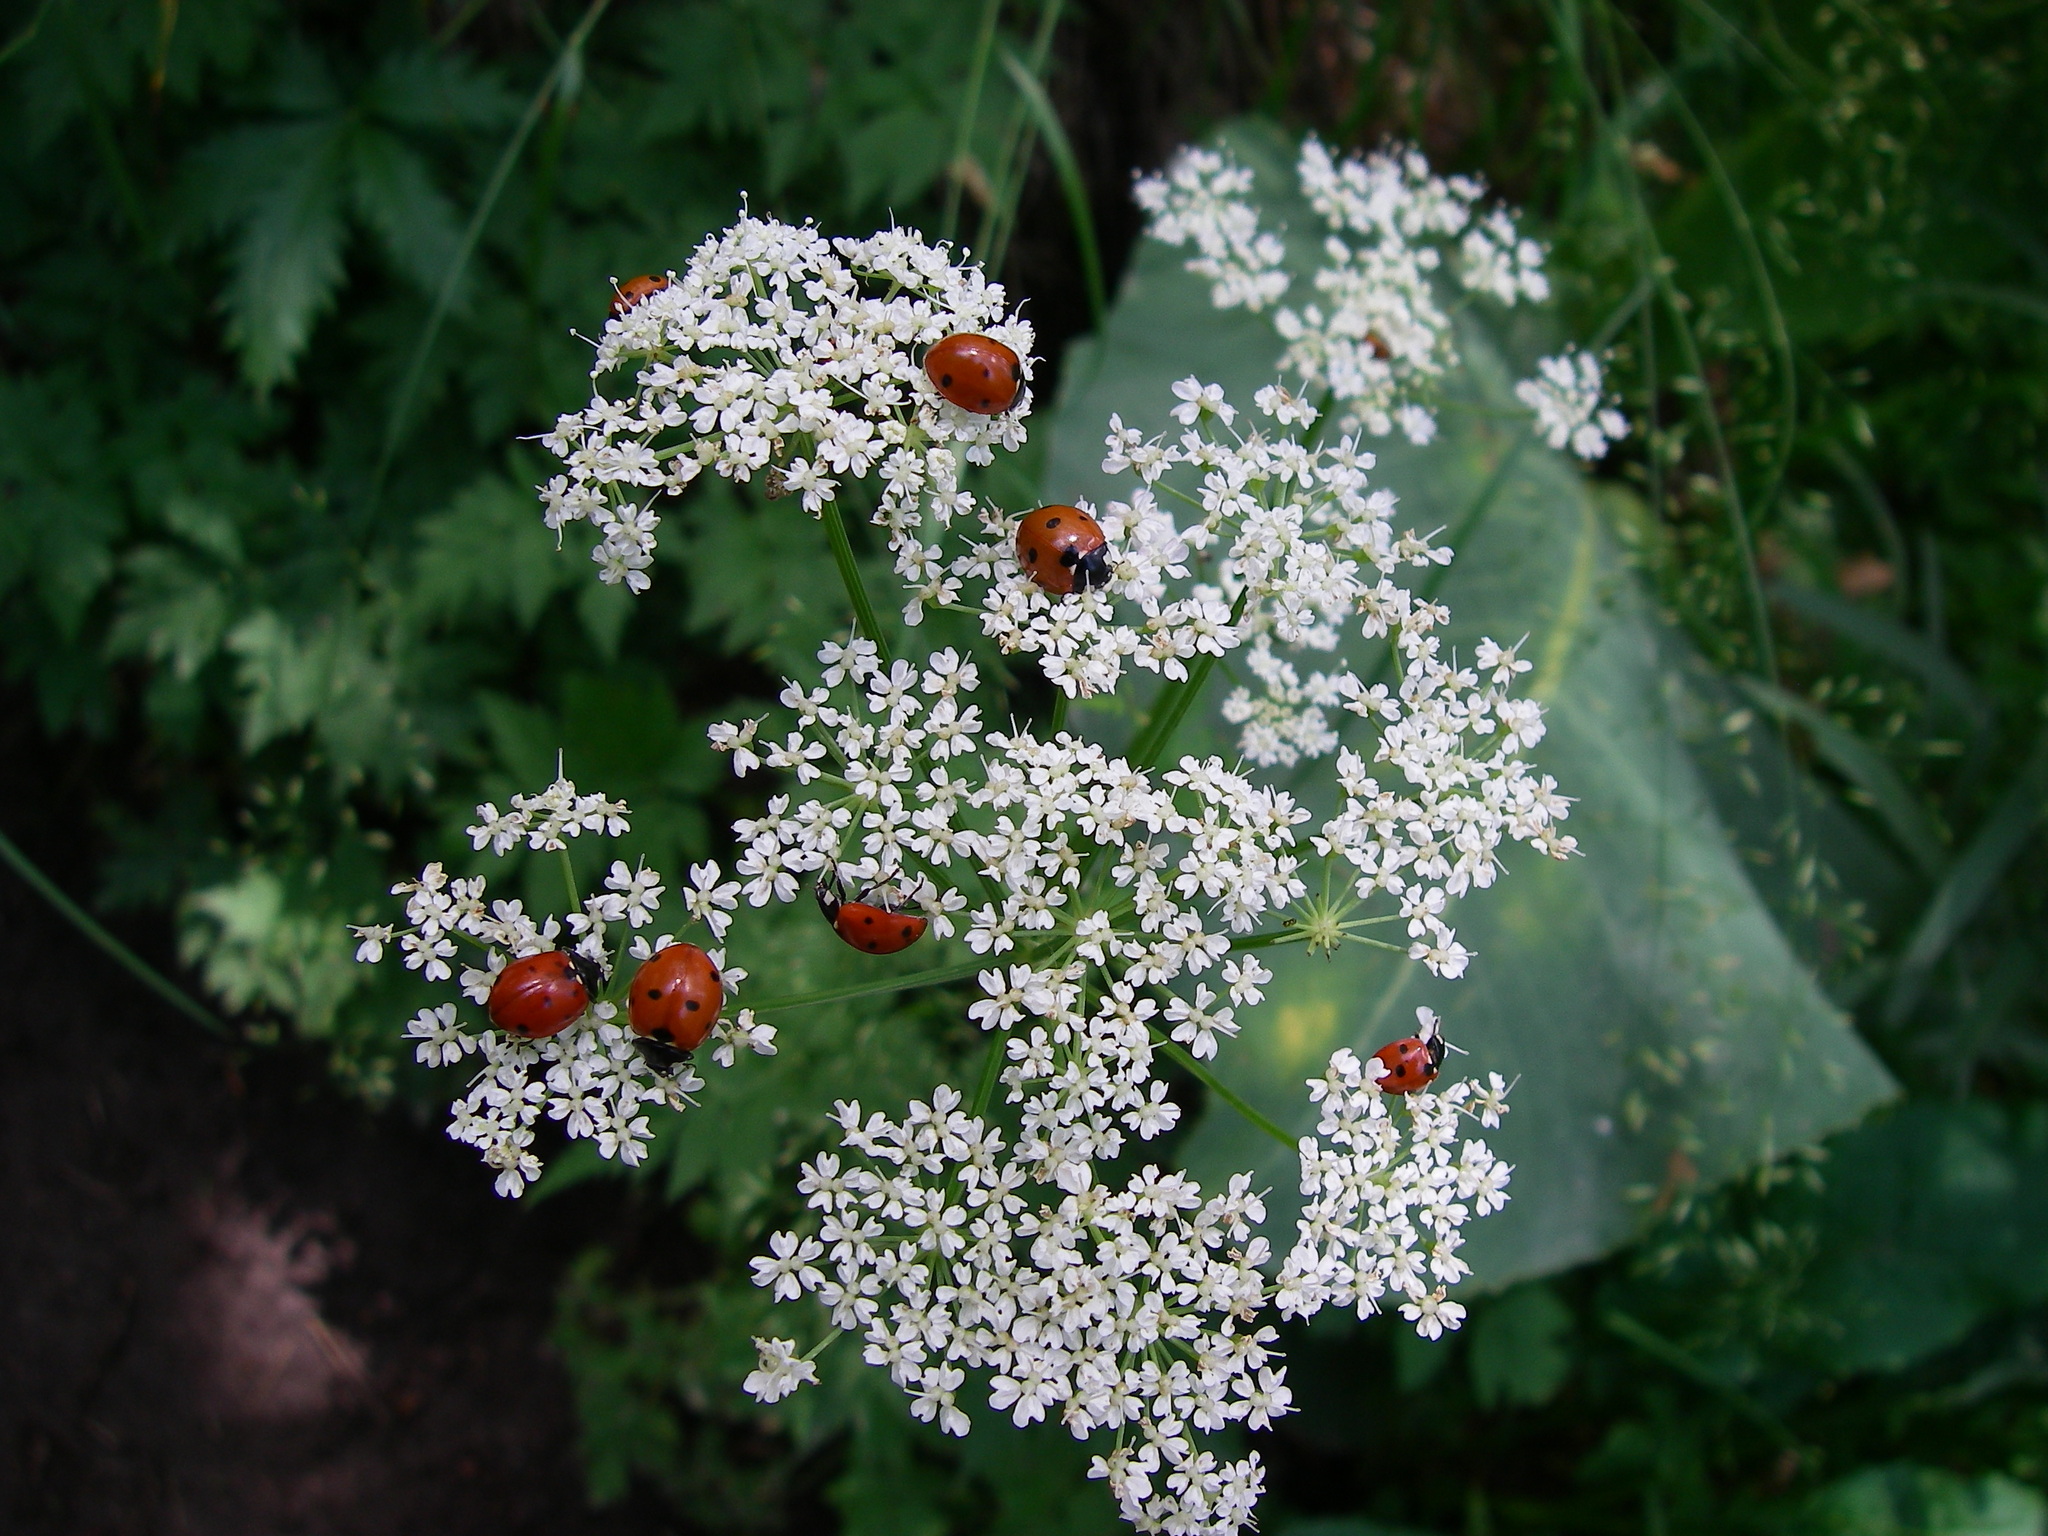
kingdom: Animalia
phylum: Arthropoda
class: Insecta
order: Coleoptera
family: Coccinellidae
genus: Coccinella
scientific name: Coccinella septempunctata
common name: Sevenspotted lady beetle
